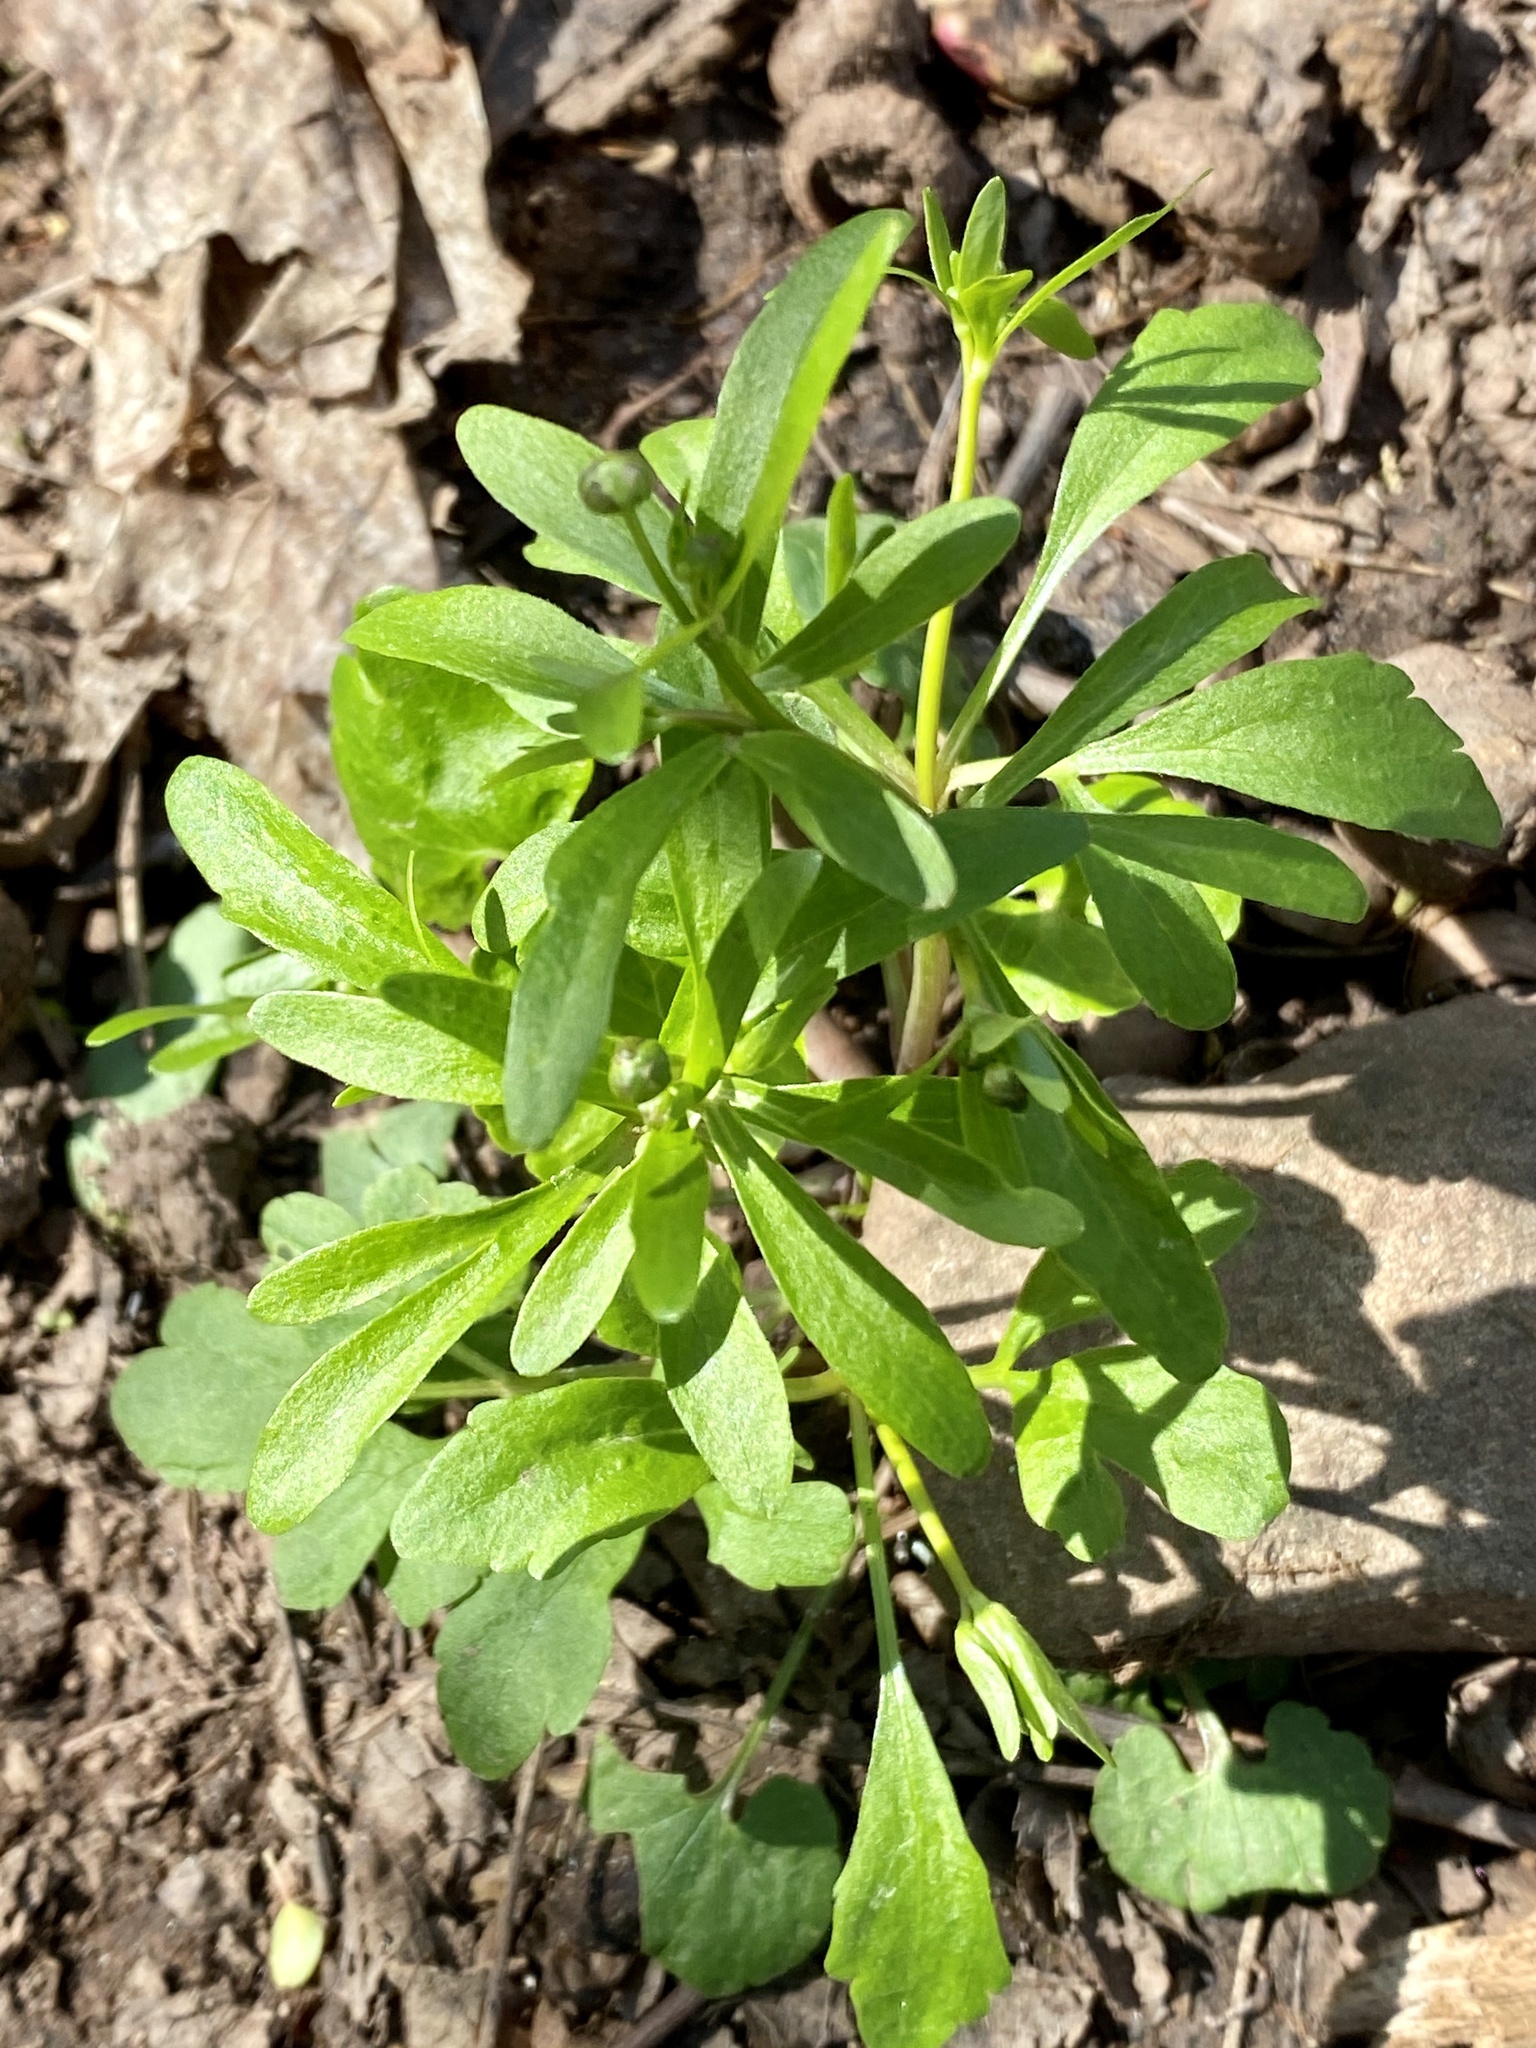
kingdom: Plantae
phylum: Tracheophyta
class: Magnoliopsida
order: Ranunculales
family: Ranunculaceae
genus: Ranunculus
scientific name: Ranunculus abortivus
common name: Early wood buttercup
